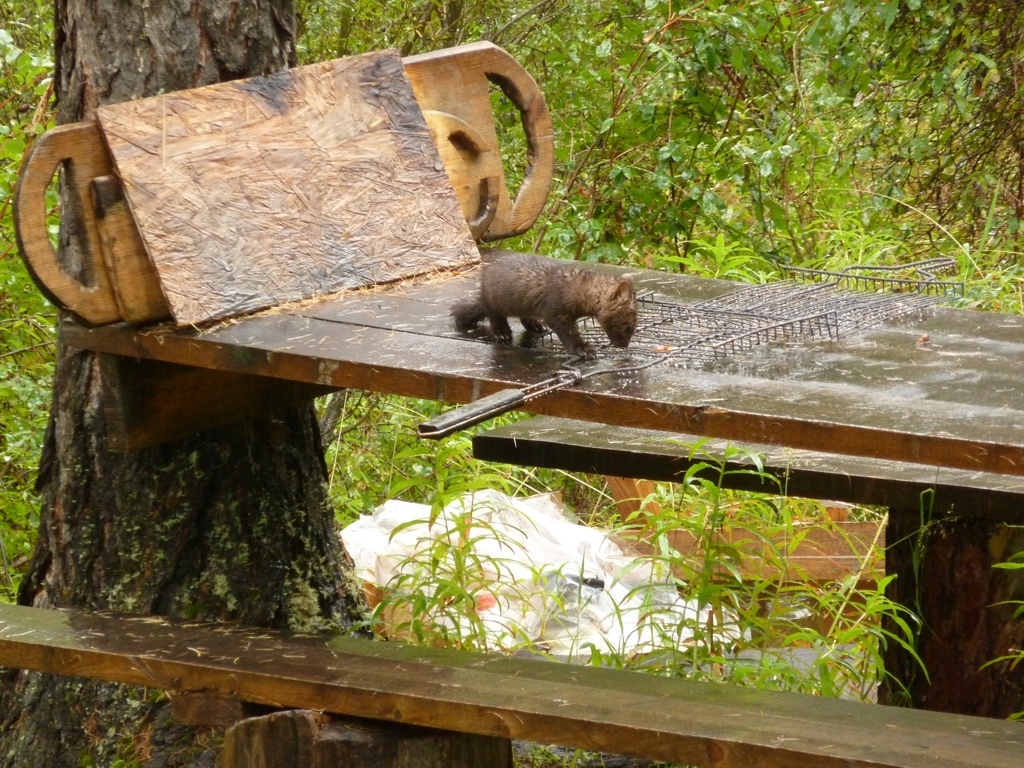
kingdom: Animalia
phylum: Chordata
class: Mammalia
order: Carnivora
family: Mustelidae
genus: Martes
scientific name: Martes zibellina
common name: Sable
